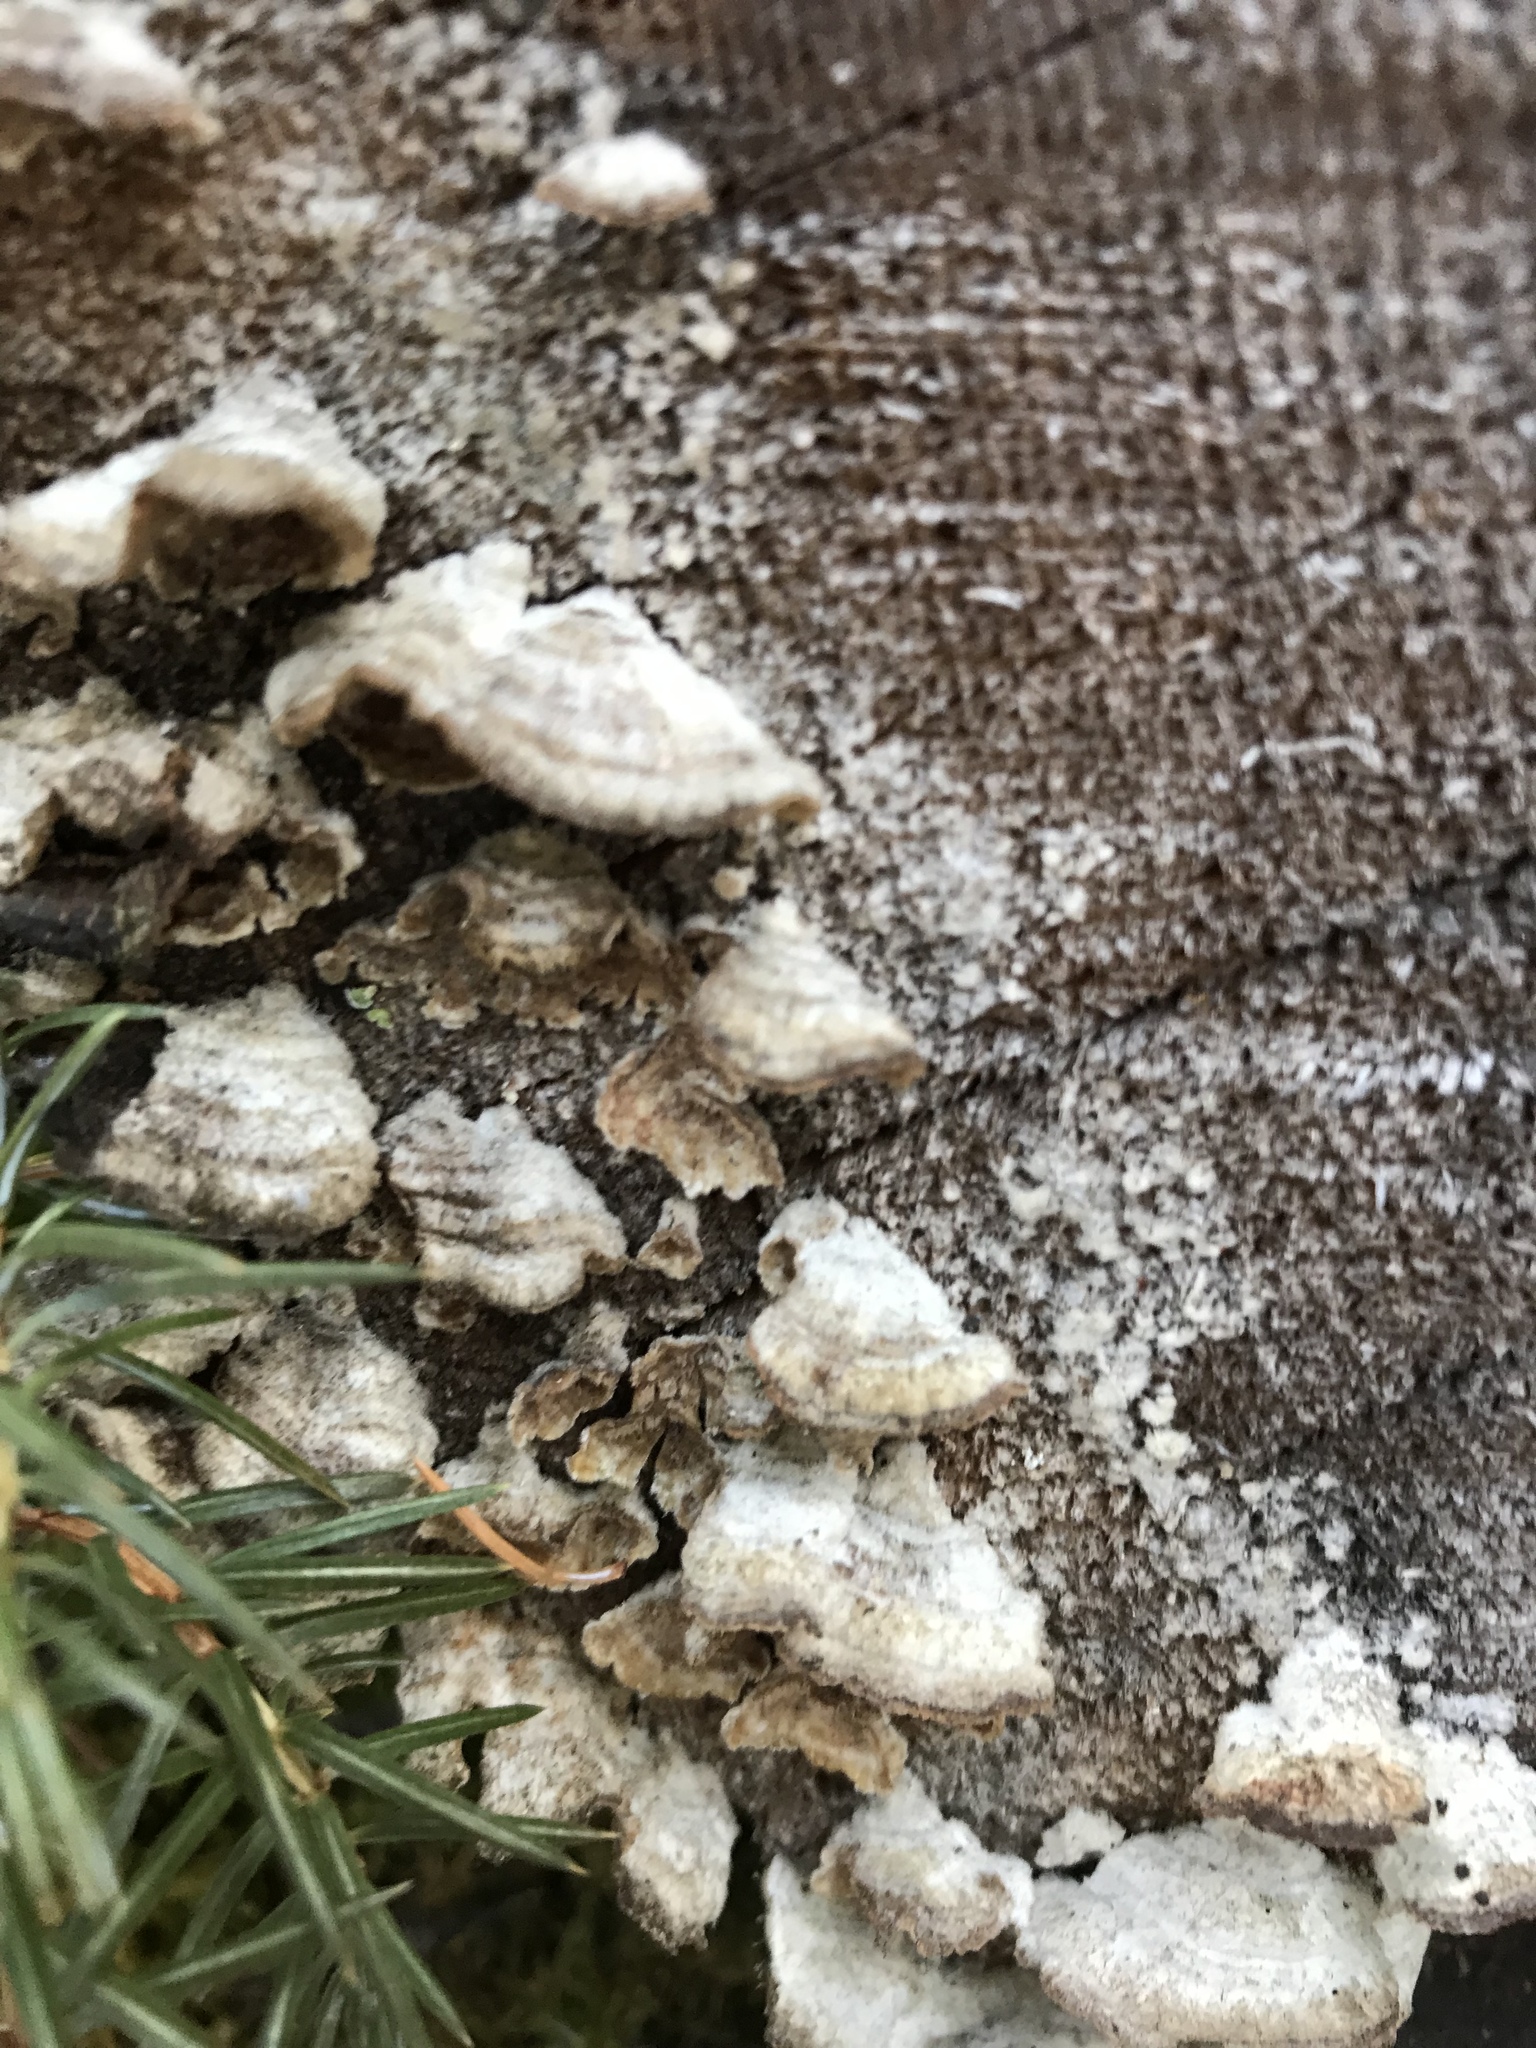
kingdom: Fungi
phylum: Basidiomycota
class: Agaricomycetes
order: Hymenochaetales
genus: Trichaptum
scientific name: Trichaptum abietinum
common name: Purplepore bracket
